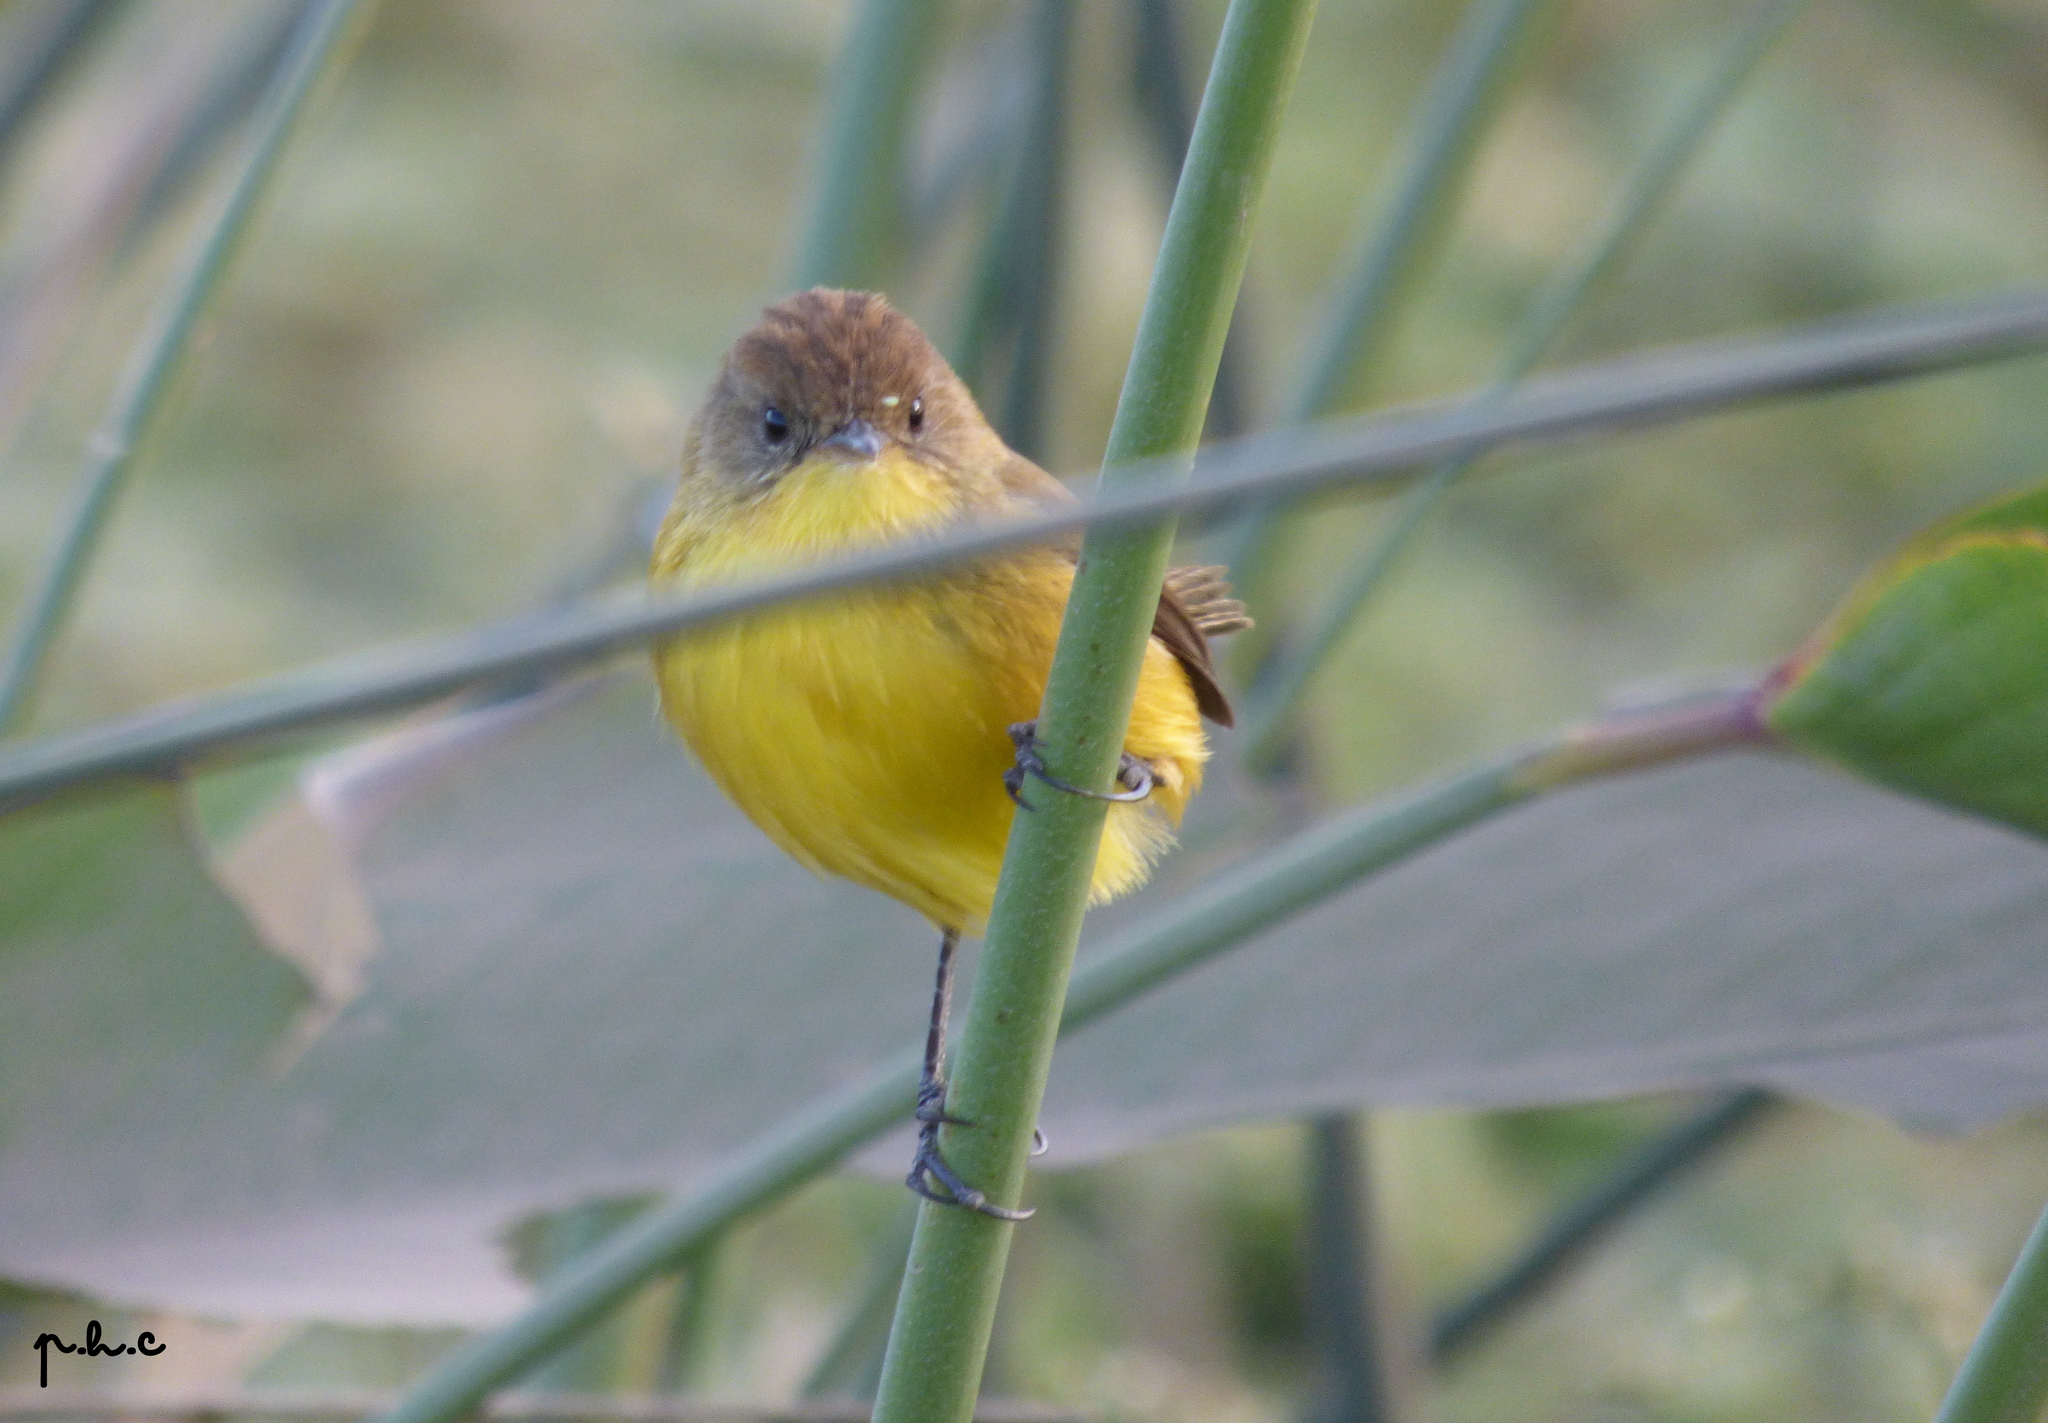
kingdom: Animalia
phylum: Chordata
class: Aves
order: Passeriformes
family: Tyrannidae
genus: Pseudocolopteryx
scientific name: Pseudocolopteryx flaviventris
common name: Warbling doradito
